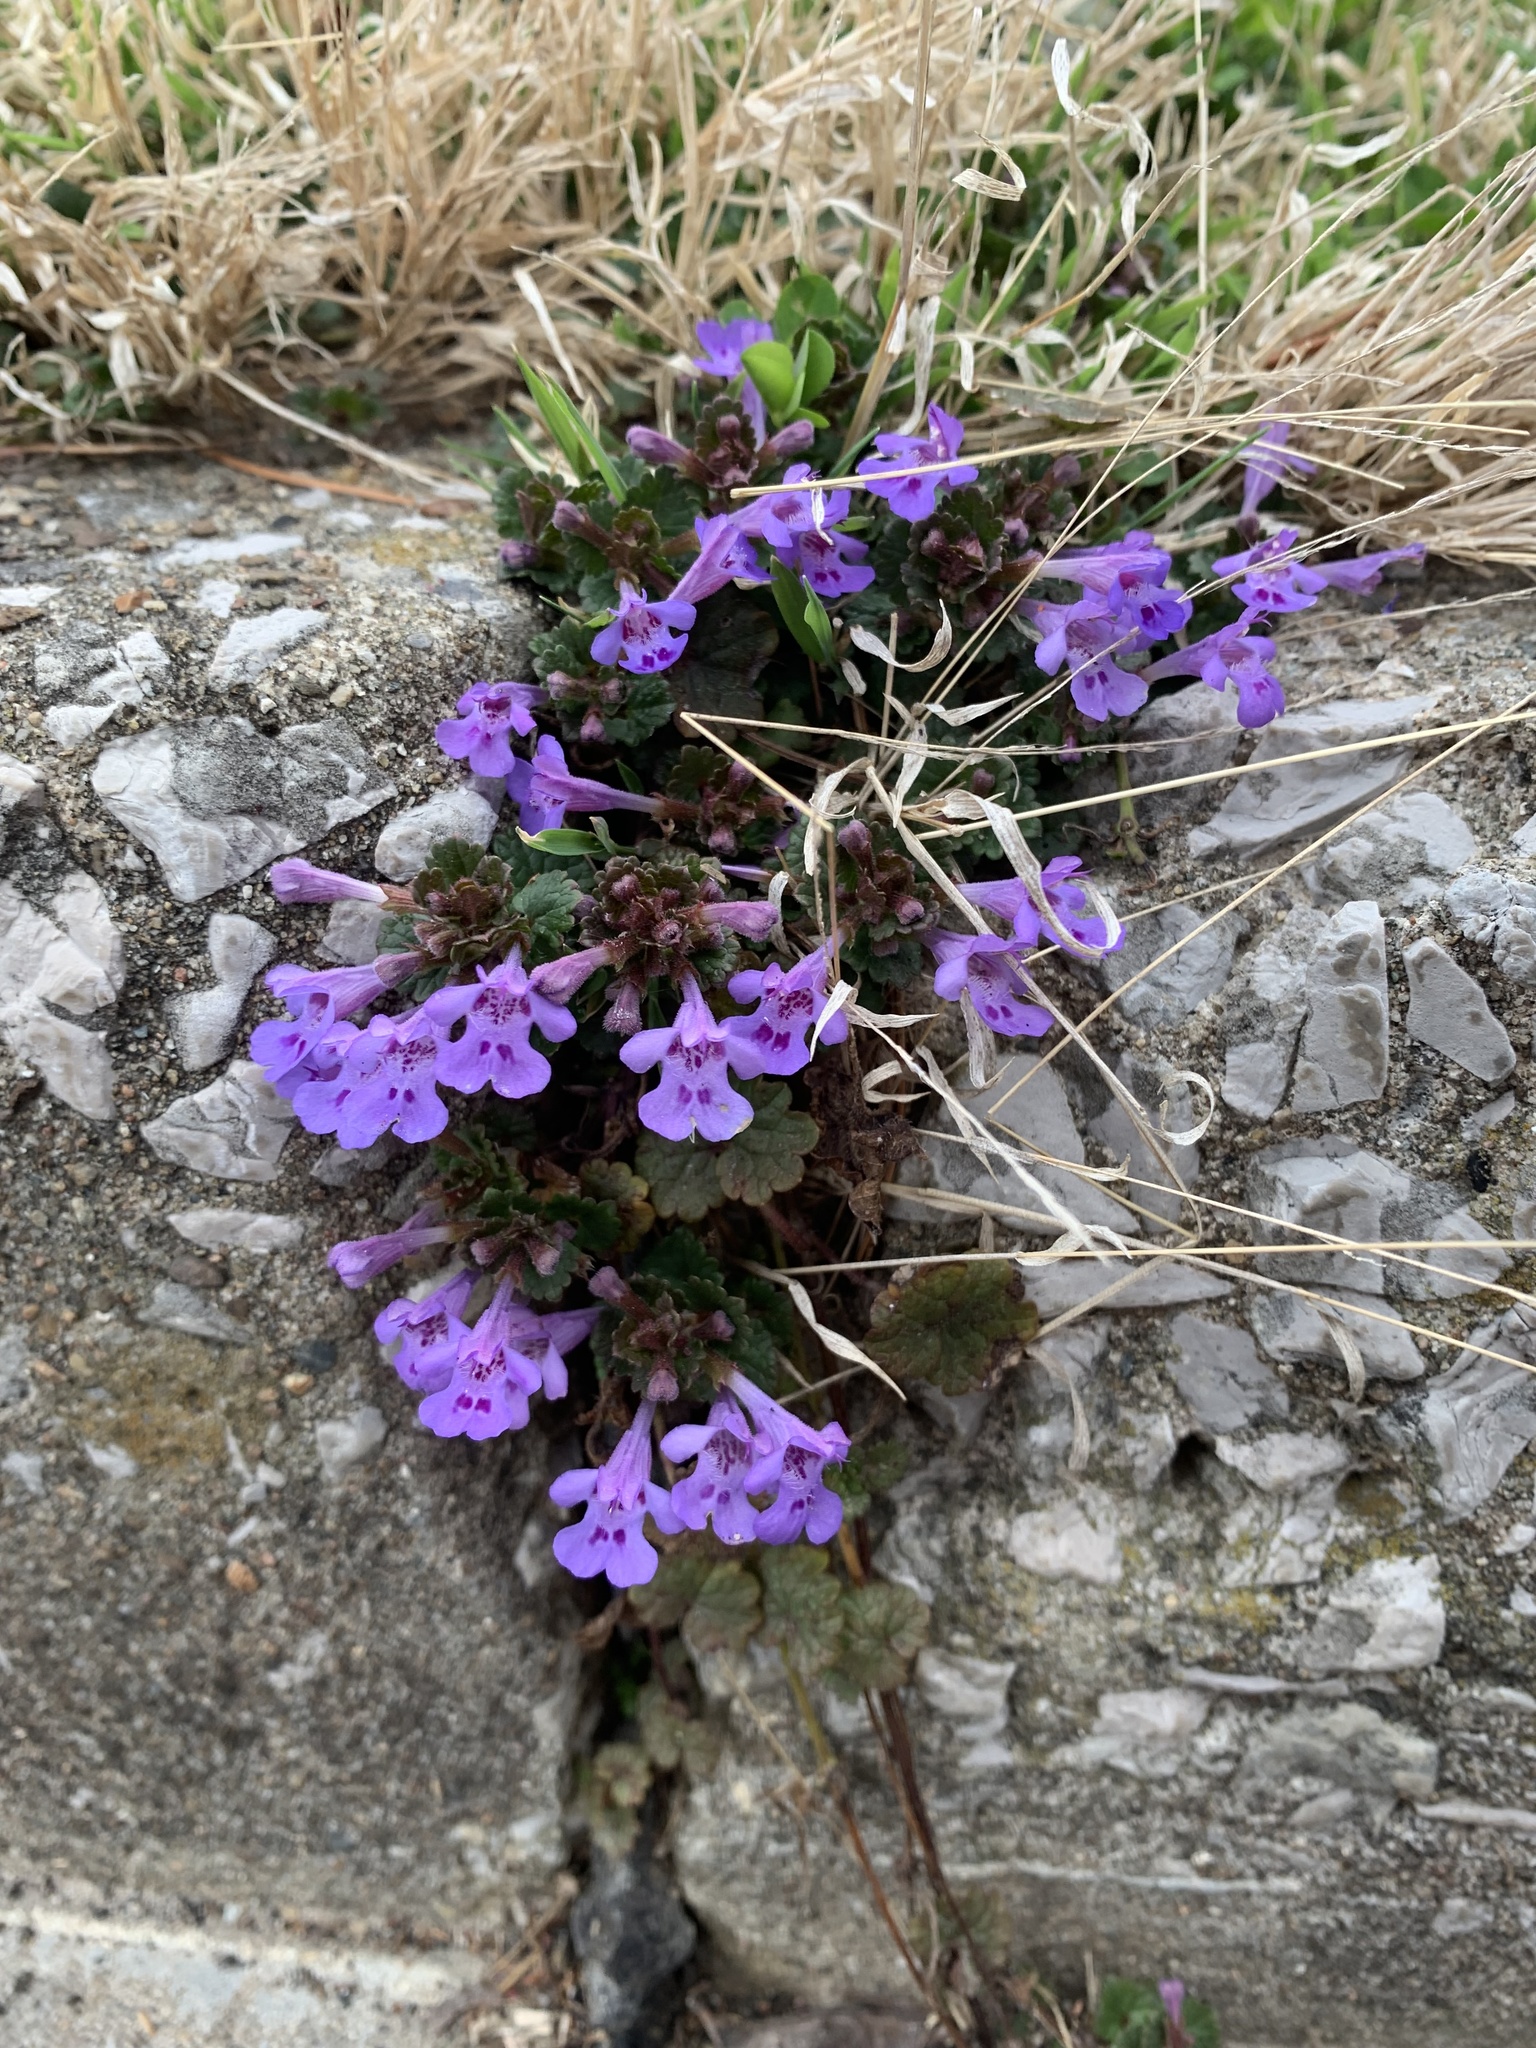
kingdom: Plantae
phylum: Tracheophyta
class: Magnoliopsida
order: Lamiales
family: Lamiaceae
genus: Glechoma
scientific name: Glechoma hederacea
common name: Ground ivy
